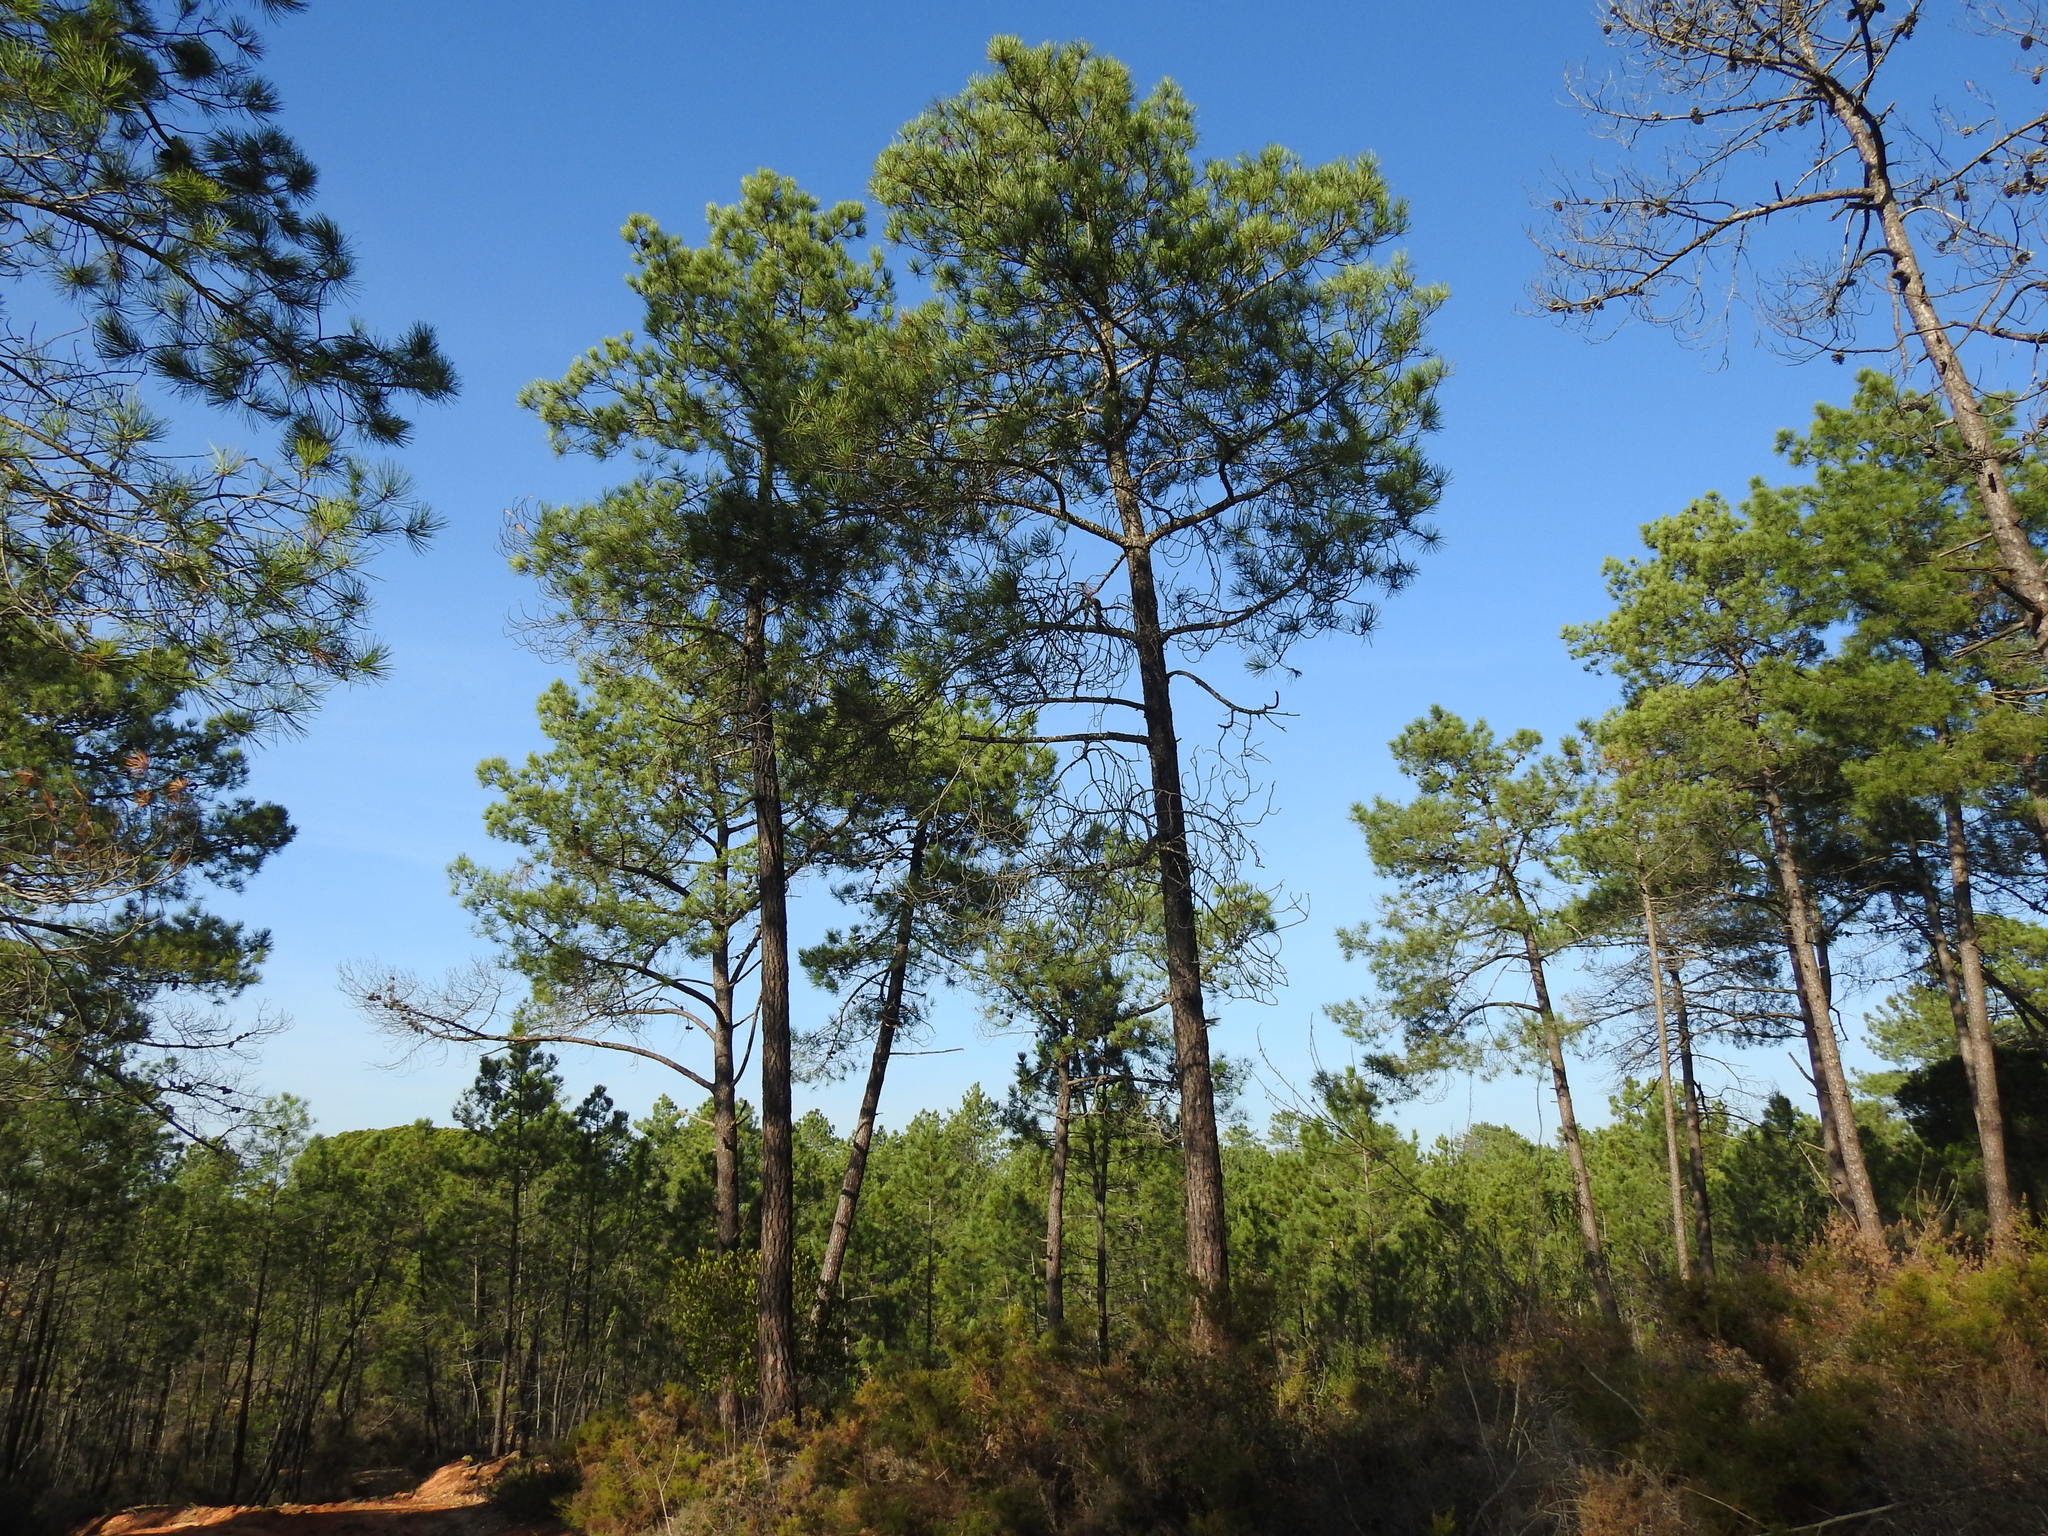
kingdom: Plantae
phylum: Tracheophyta
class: Pinopsida
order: Pinales
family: Pinaceae
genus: Pinus
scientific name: Pinus pinaster
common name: Maritime pine
